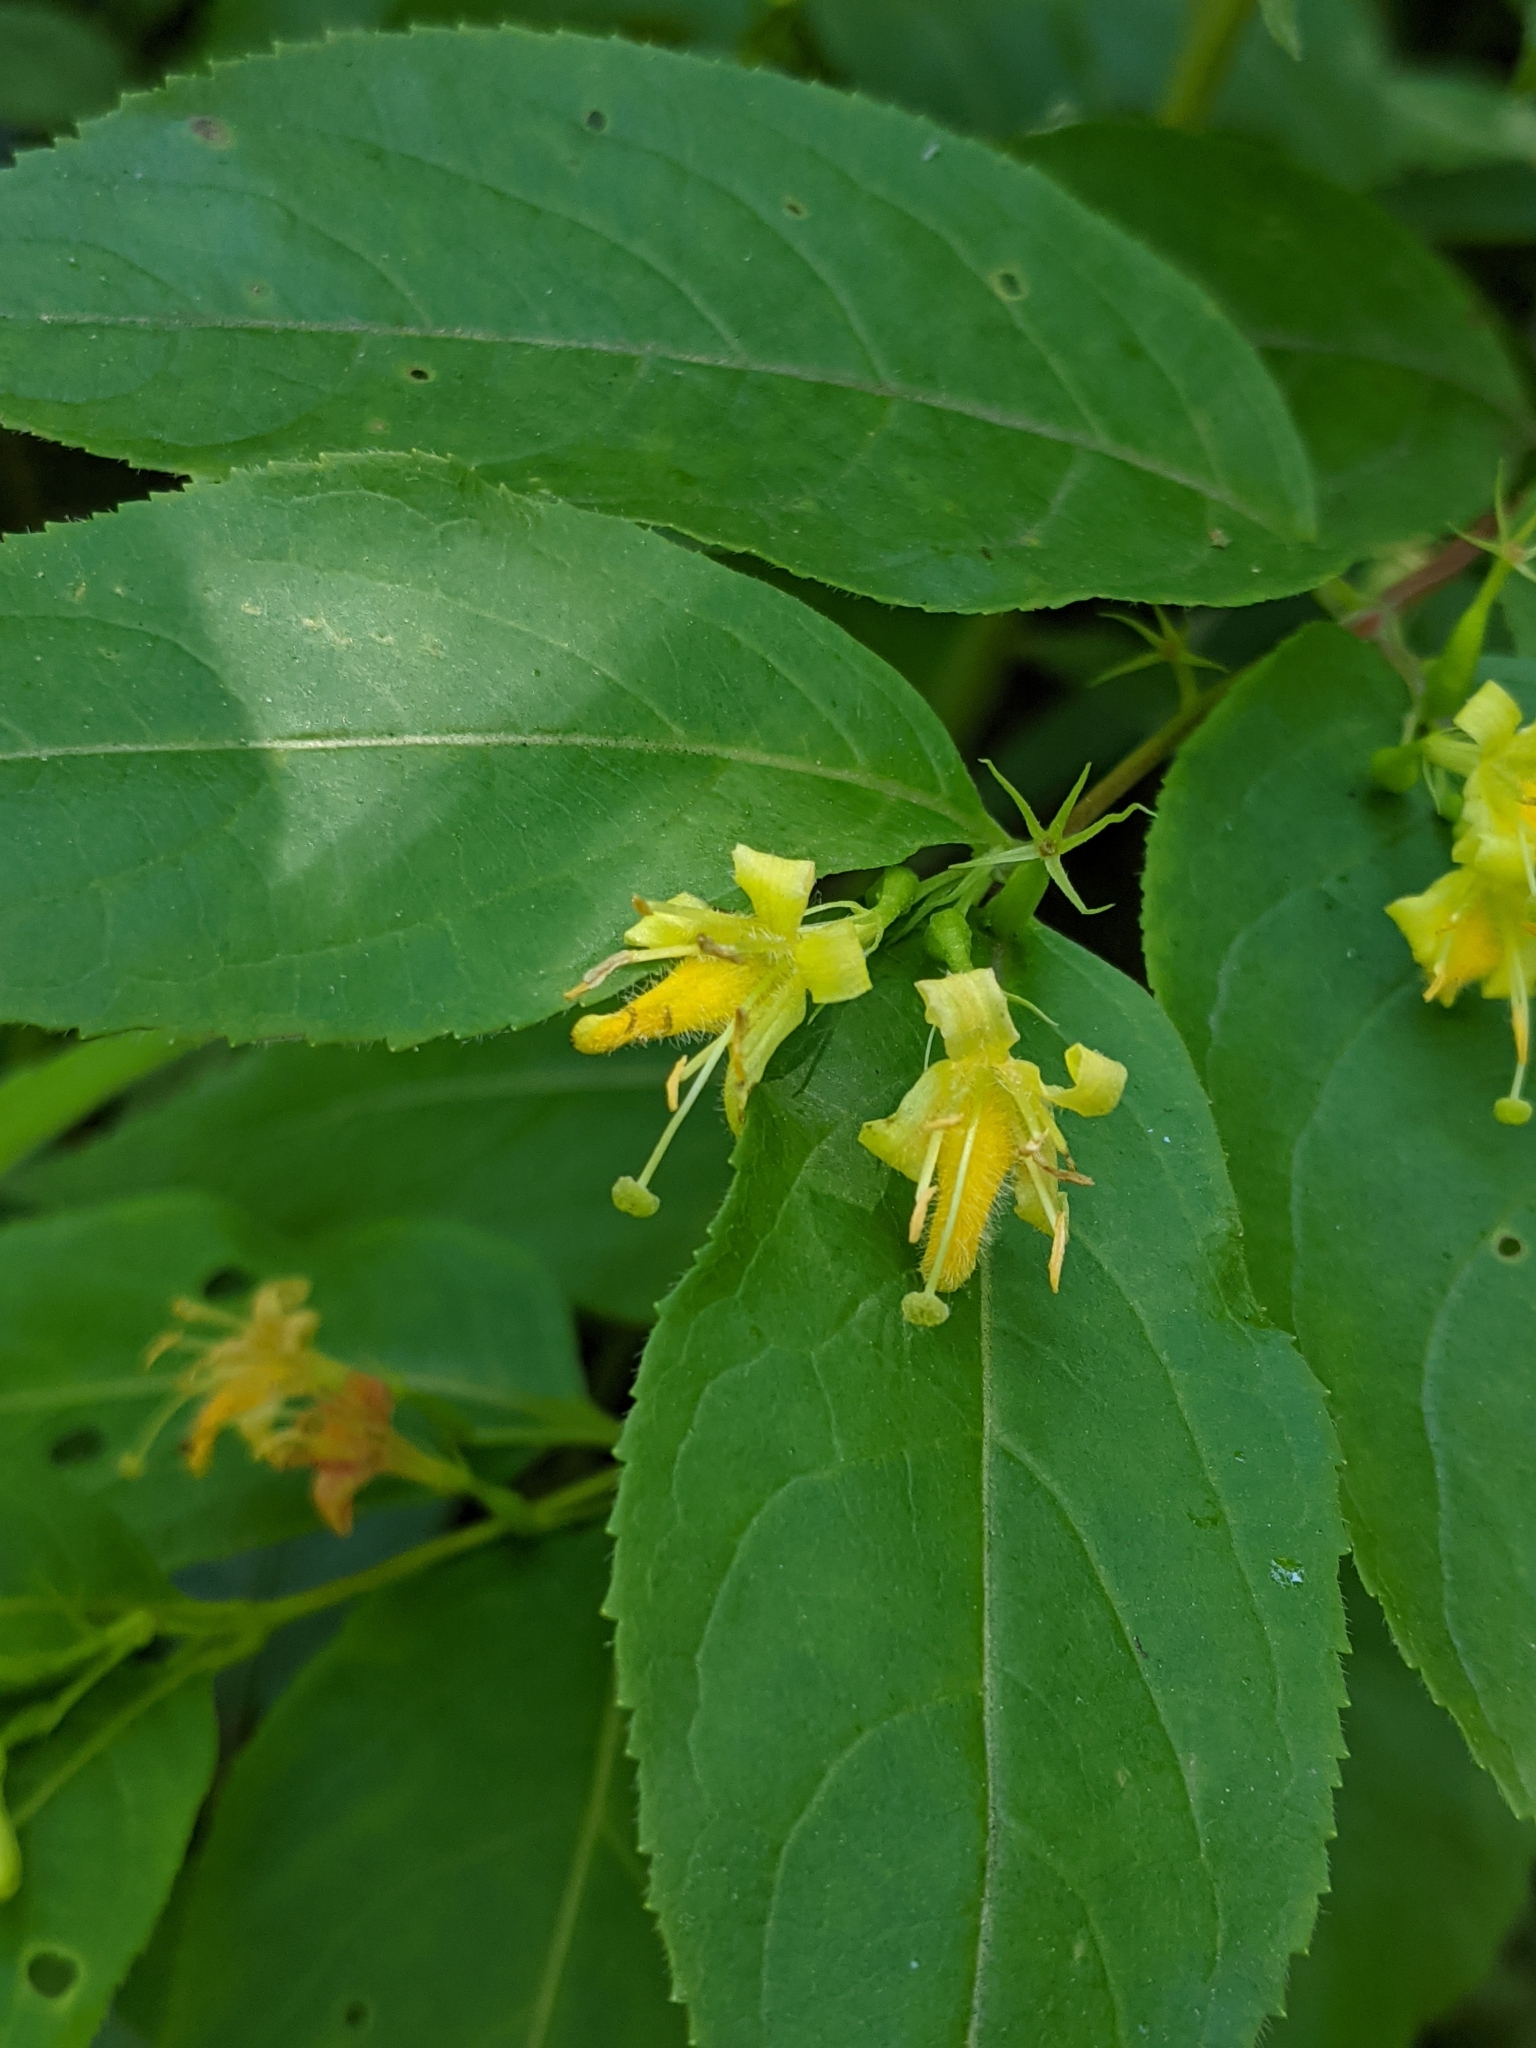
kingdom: Plantae
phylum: Tracheophyta
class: Magnoliopsida
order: Dipsacales
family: Caprifoliaceae
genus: Diervilla
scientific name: Diervilla lonicera
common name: Bush-honeysuckle
